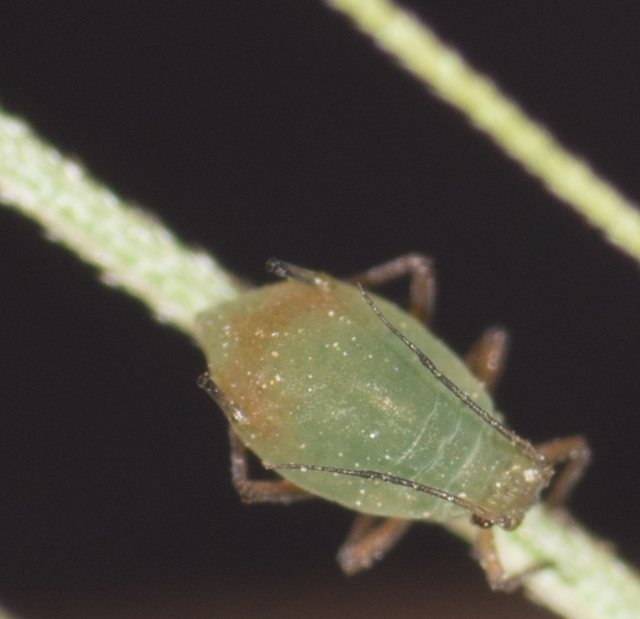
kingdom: Animalia
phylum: Arthropoda
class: Insecta
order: Hemiptera
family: Aphididae
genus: Rhopalosiphum
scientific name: Rhopalosiphum padi
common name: Oat-birdcherry aphid
